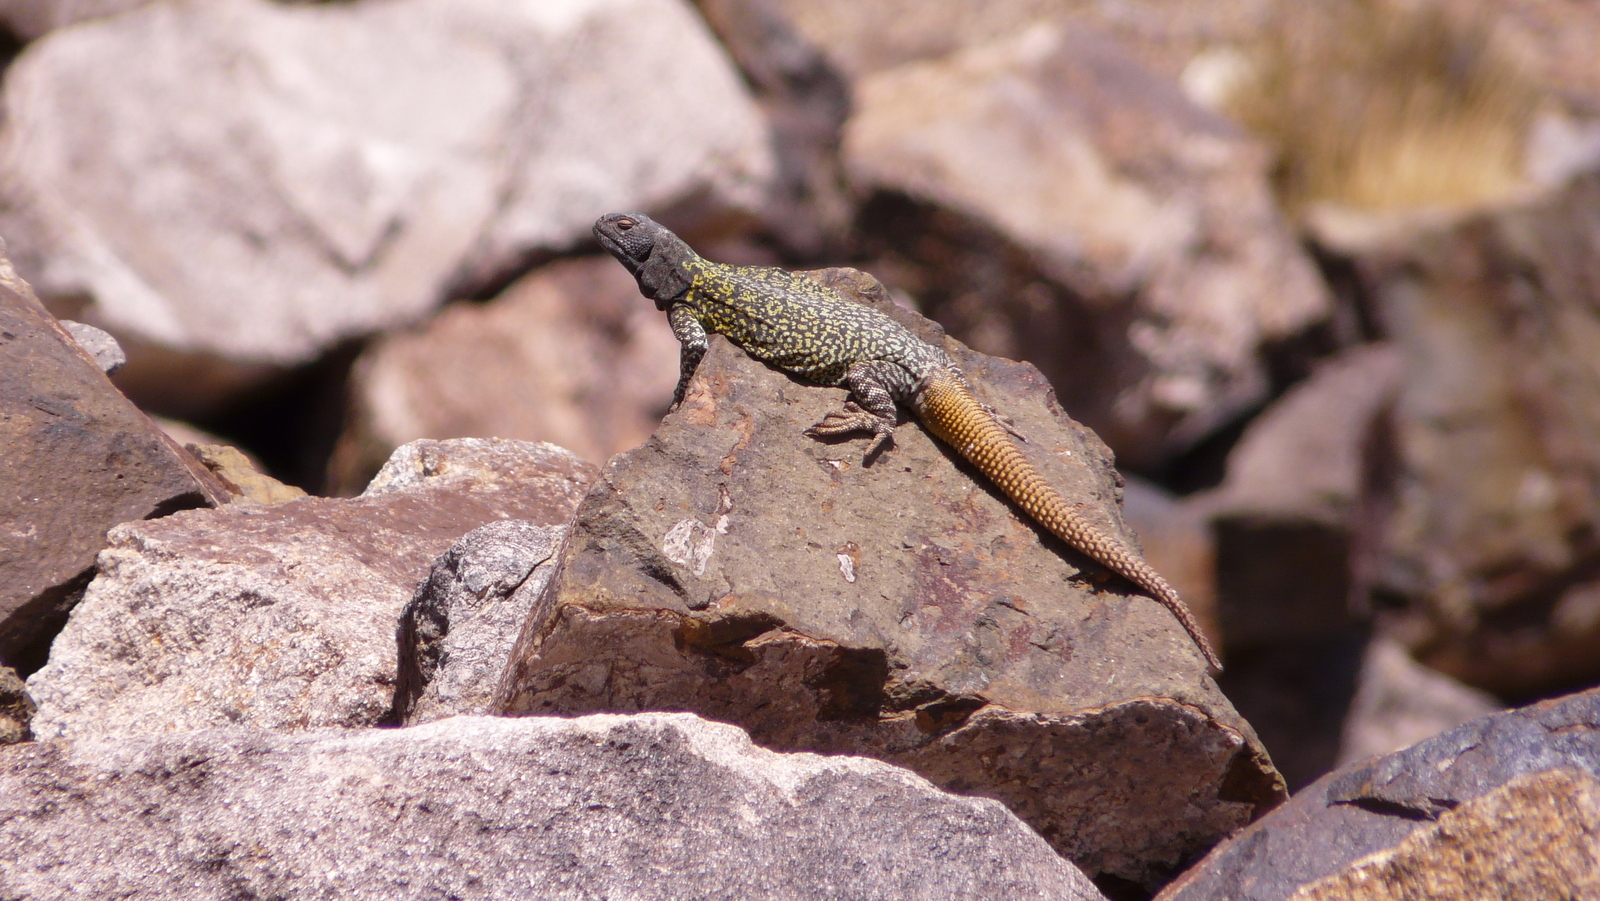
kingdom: Animalia
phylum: Chordata
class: Squamata
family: Liolaemidae
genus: Phymaturus
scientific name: Phymaturus palluma
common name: High mountain lizard
